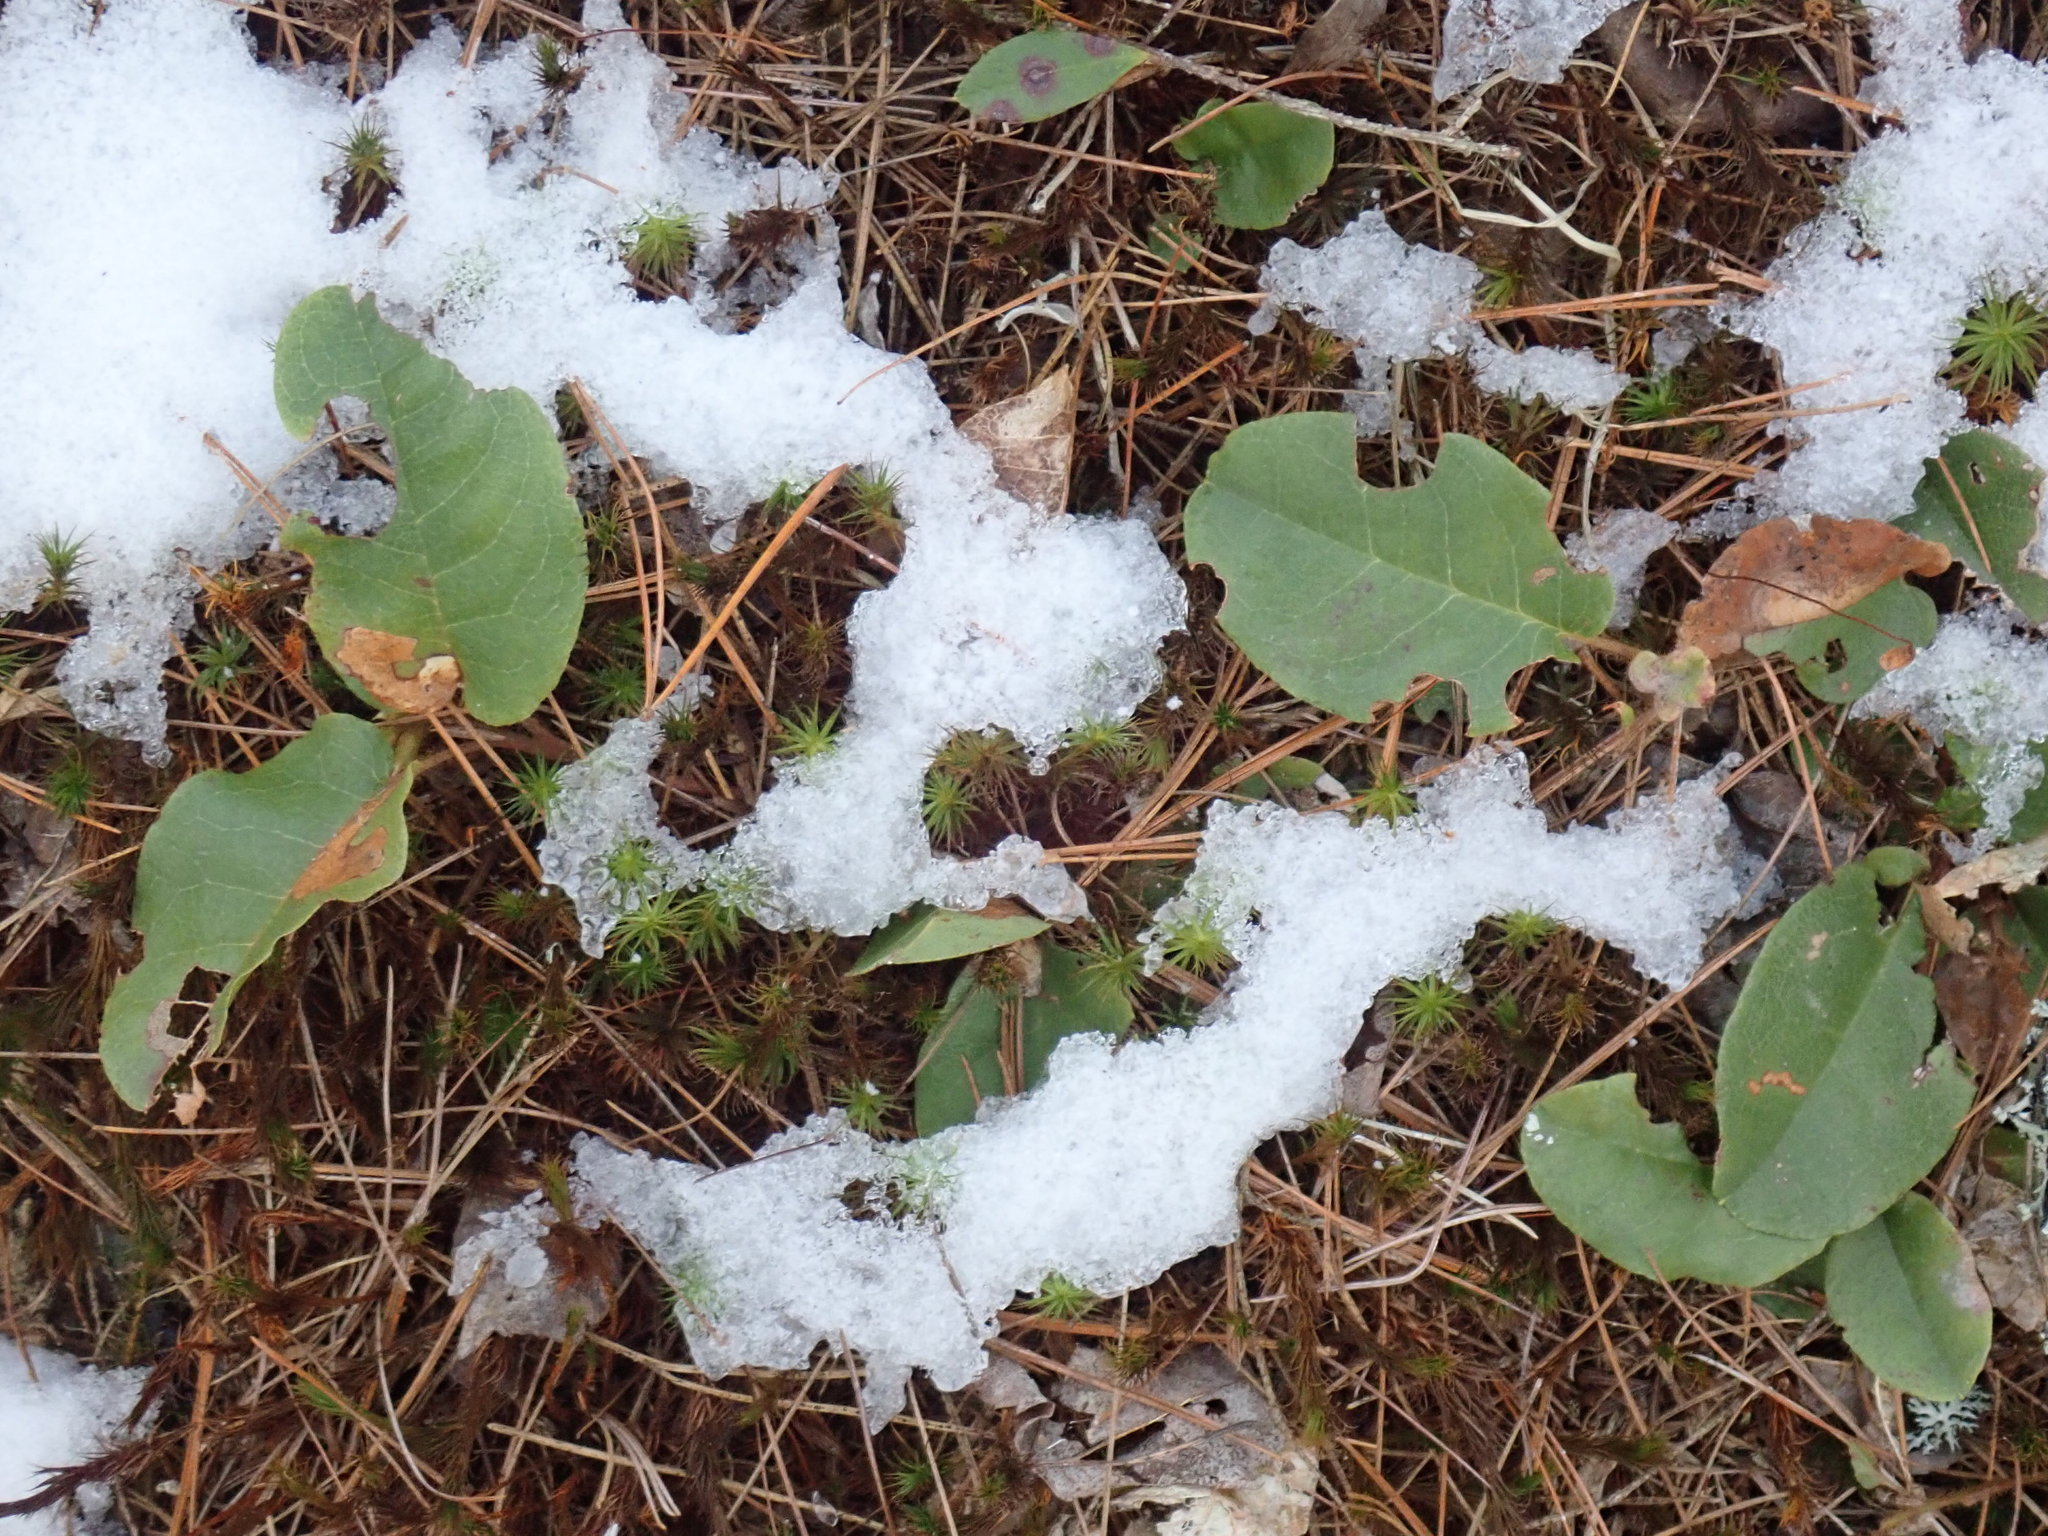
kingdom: Plantae
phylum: Tracheophyta
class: Magnoliopsida
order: Ericales
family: Ericaceae
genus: Epigaea
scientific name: Epigaea repens
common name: Gravelroot
